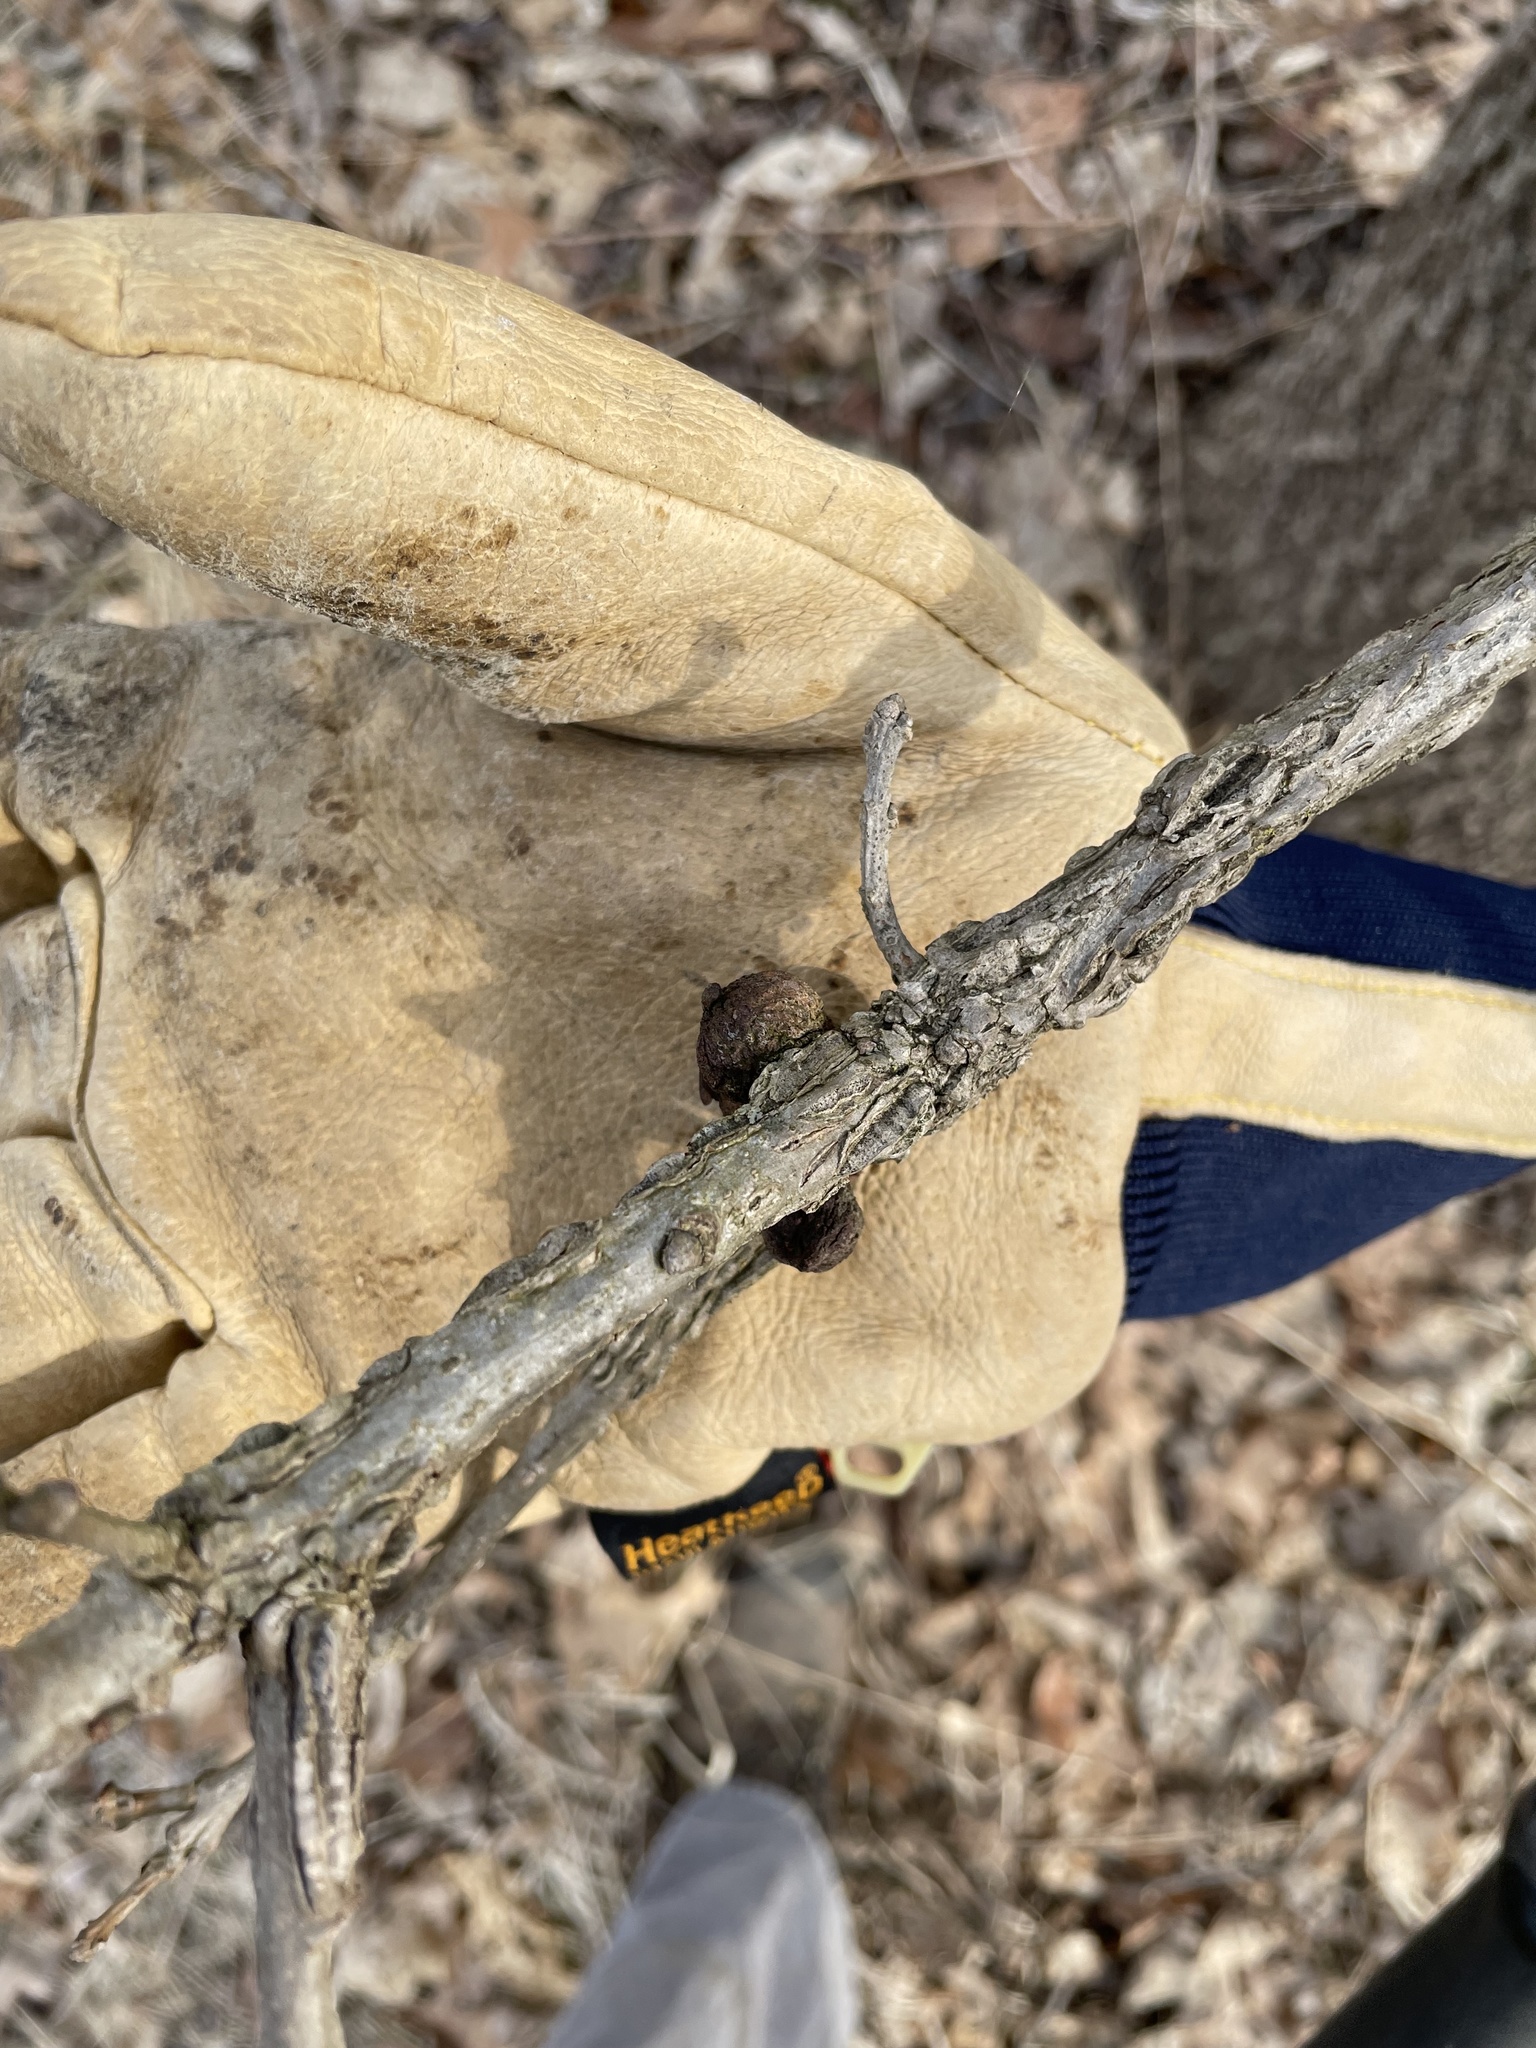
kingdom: Animalia
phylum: Arthropoda
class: Insecta
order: Hymenoptera
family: Cynipidae
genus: Disholcaspis
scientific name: Disholcaspis
